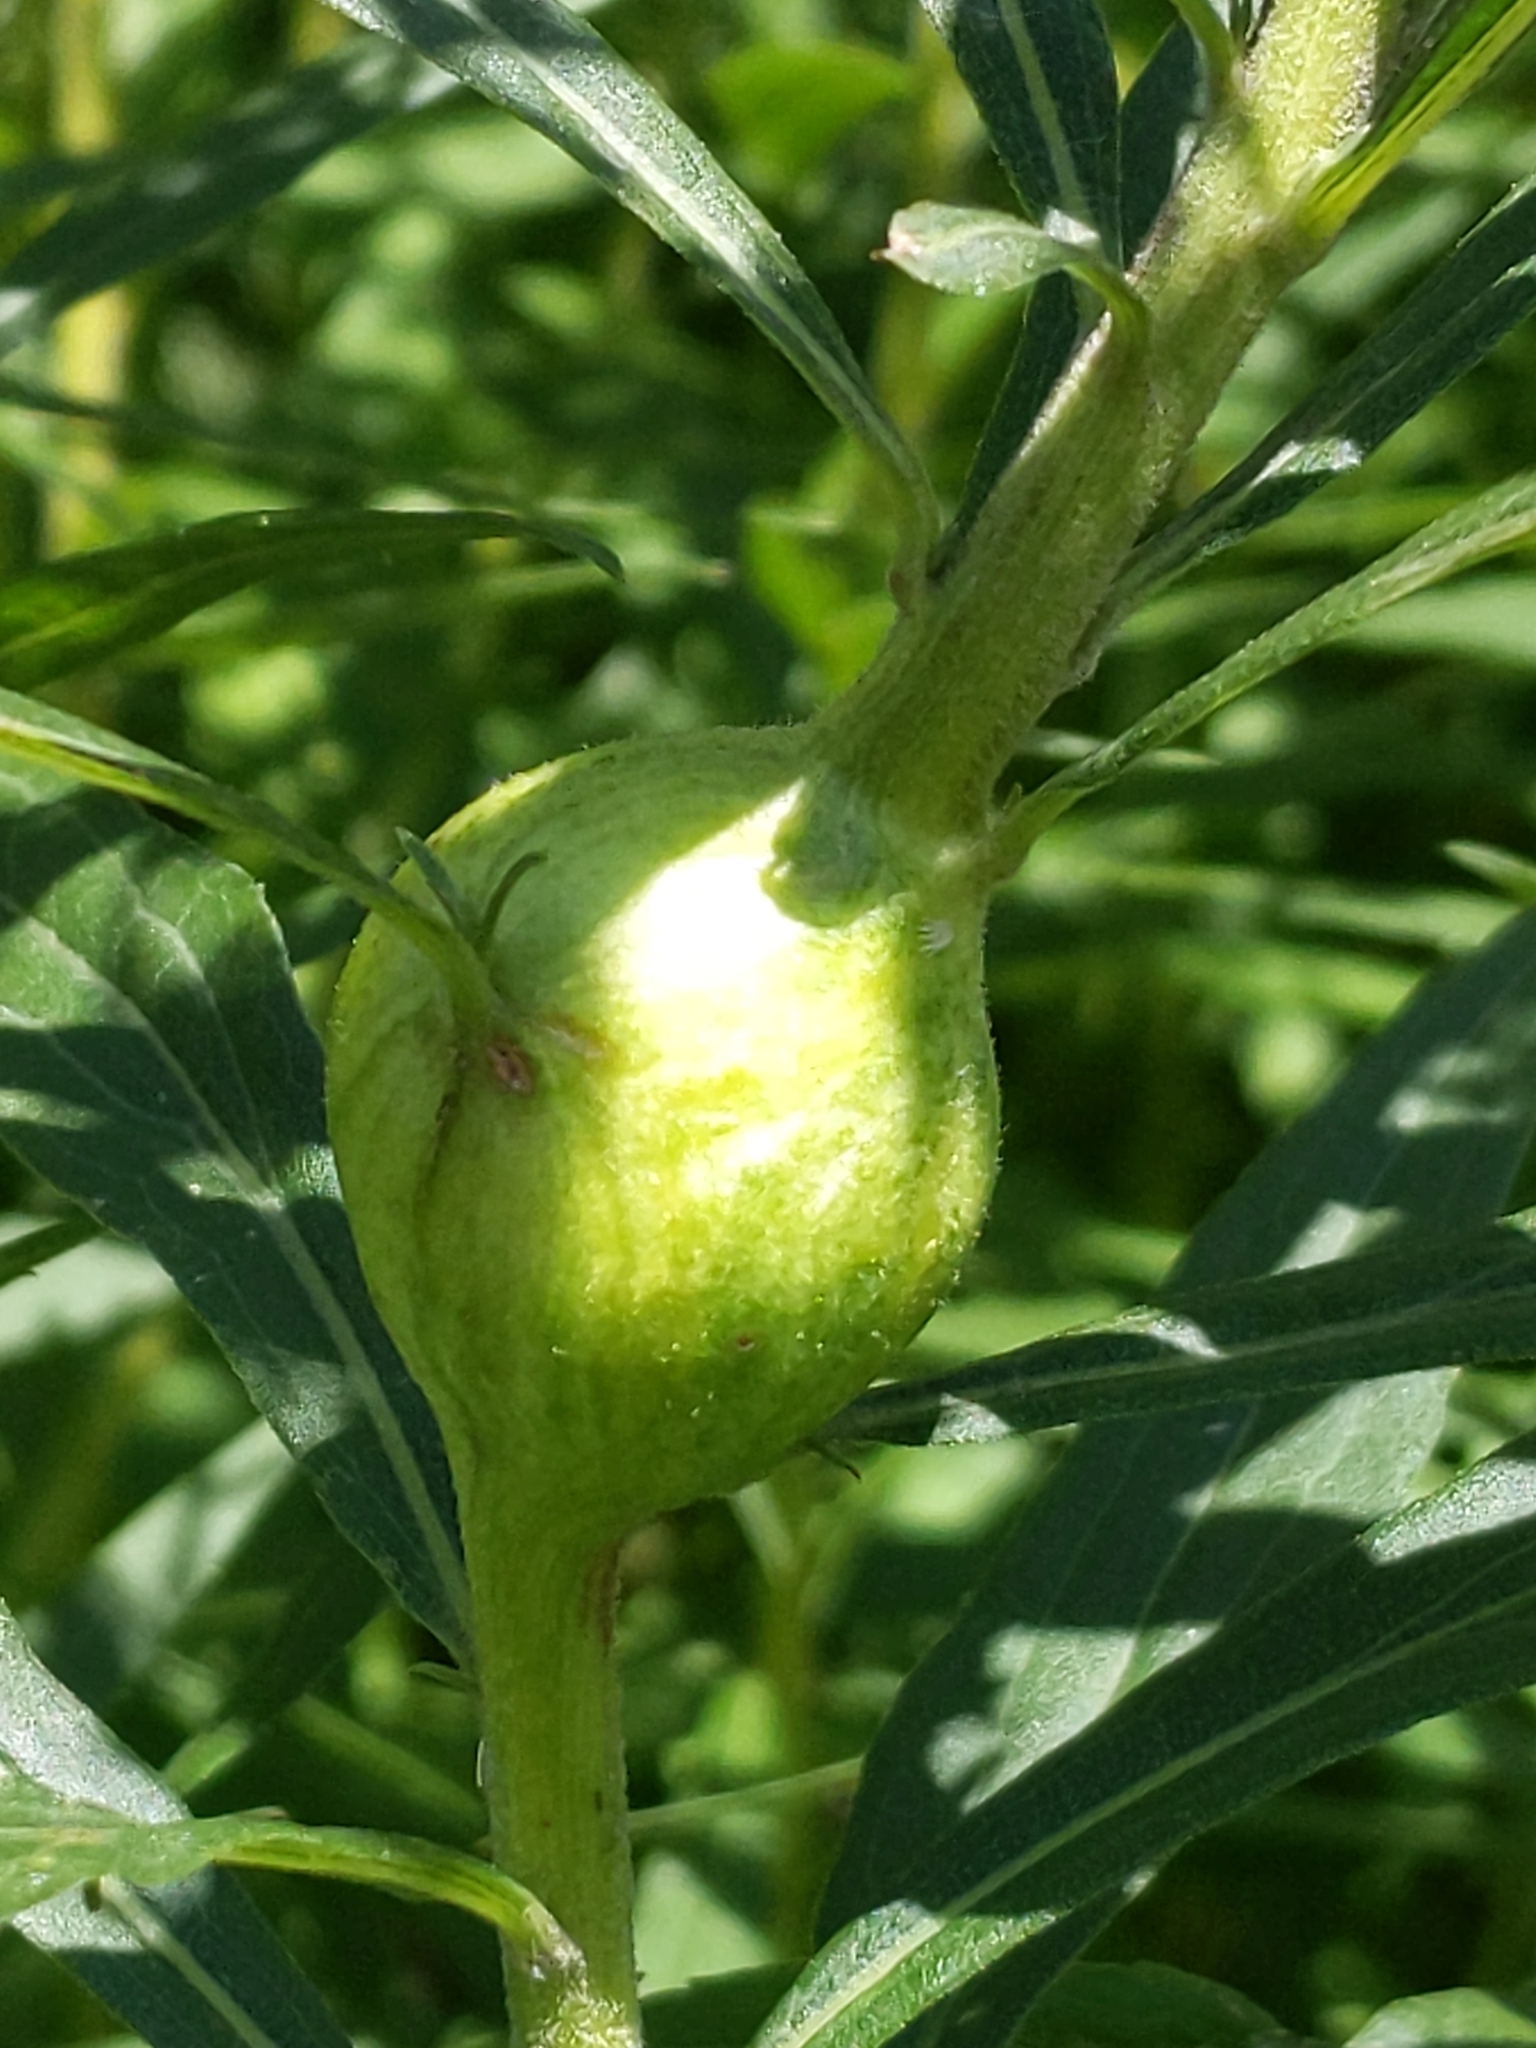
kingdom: Animalia
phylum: Arthropoda
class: Insecta
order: Diptera
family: Tephritidae
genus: Eurosta
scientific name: Eurosta solidaginis
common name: Goldenrod gall fly
